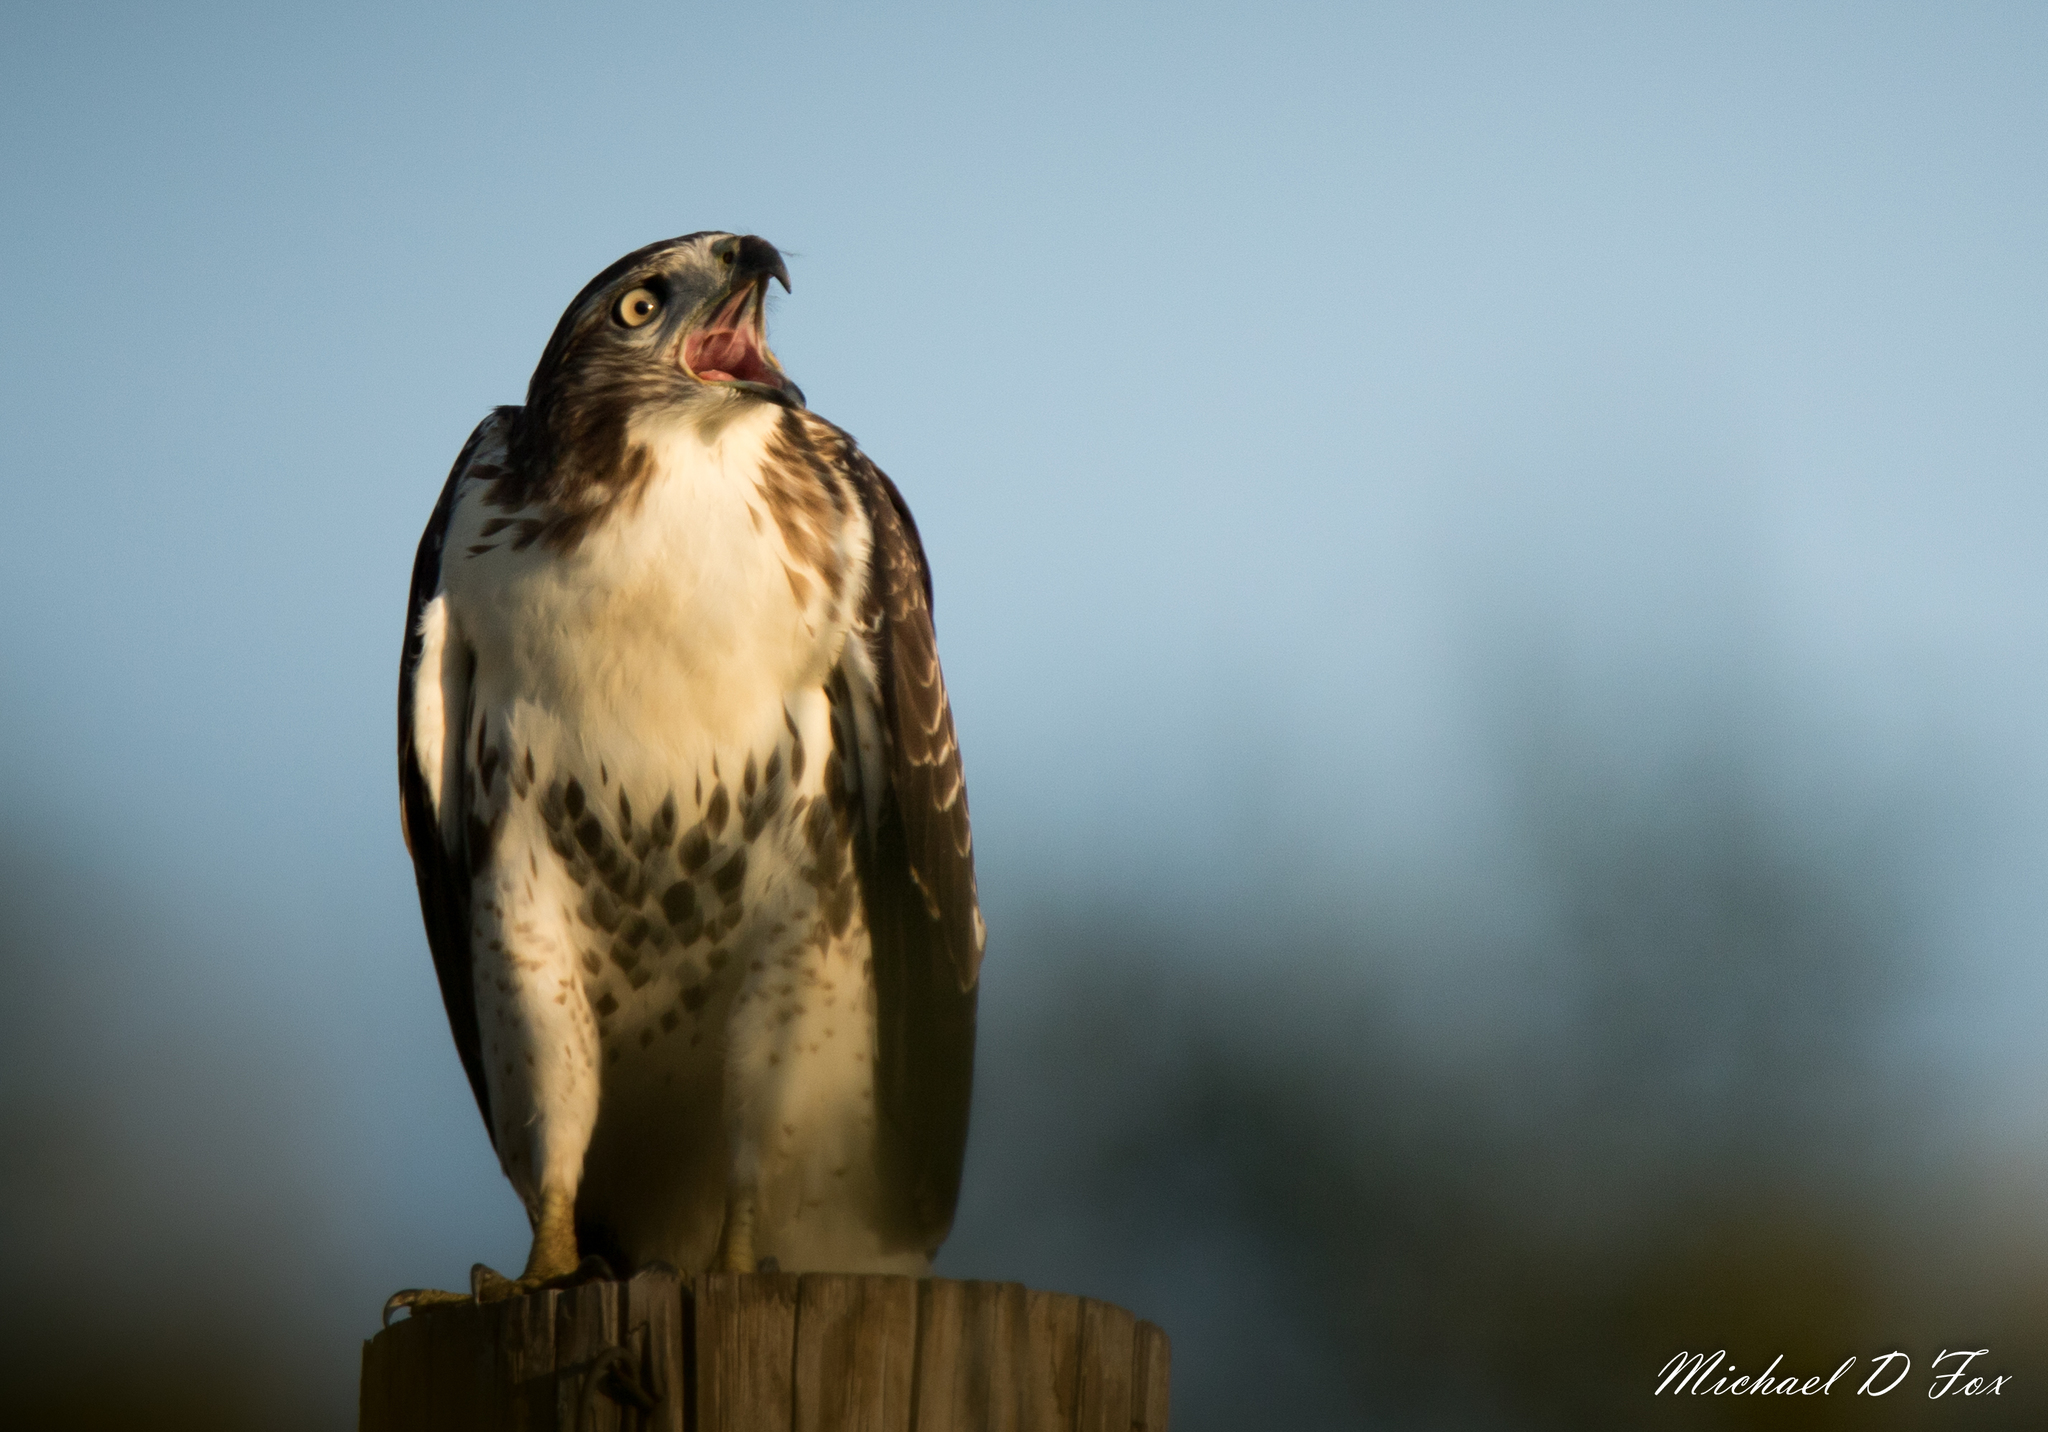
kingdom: Animalia
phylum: Chordata
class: Aves
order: Accipitriformes
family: Accipitridae
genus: Buteo
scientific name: Buteo jamaicensis
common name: Red-tailed hawk
